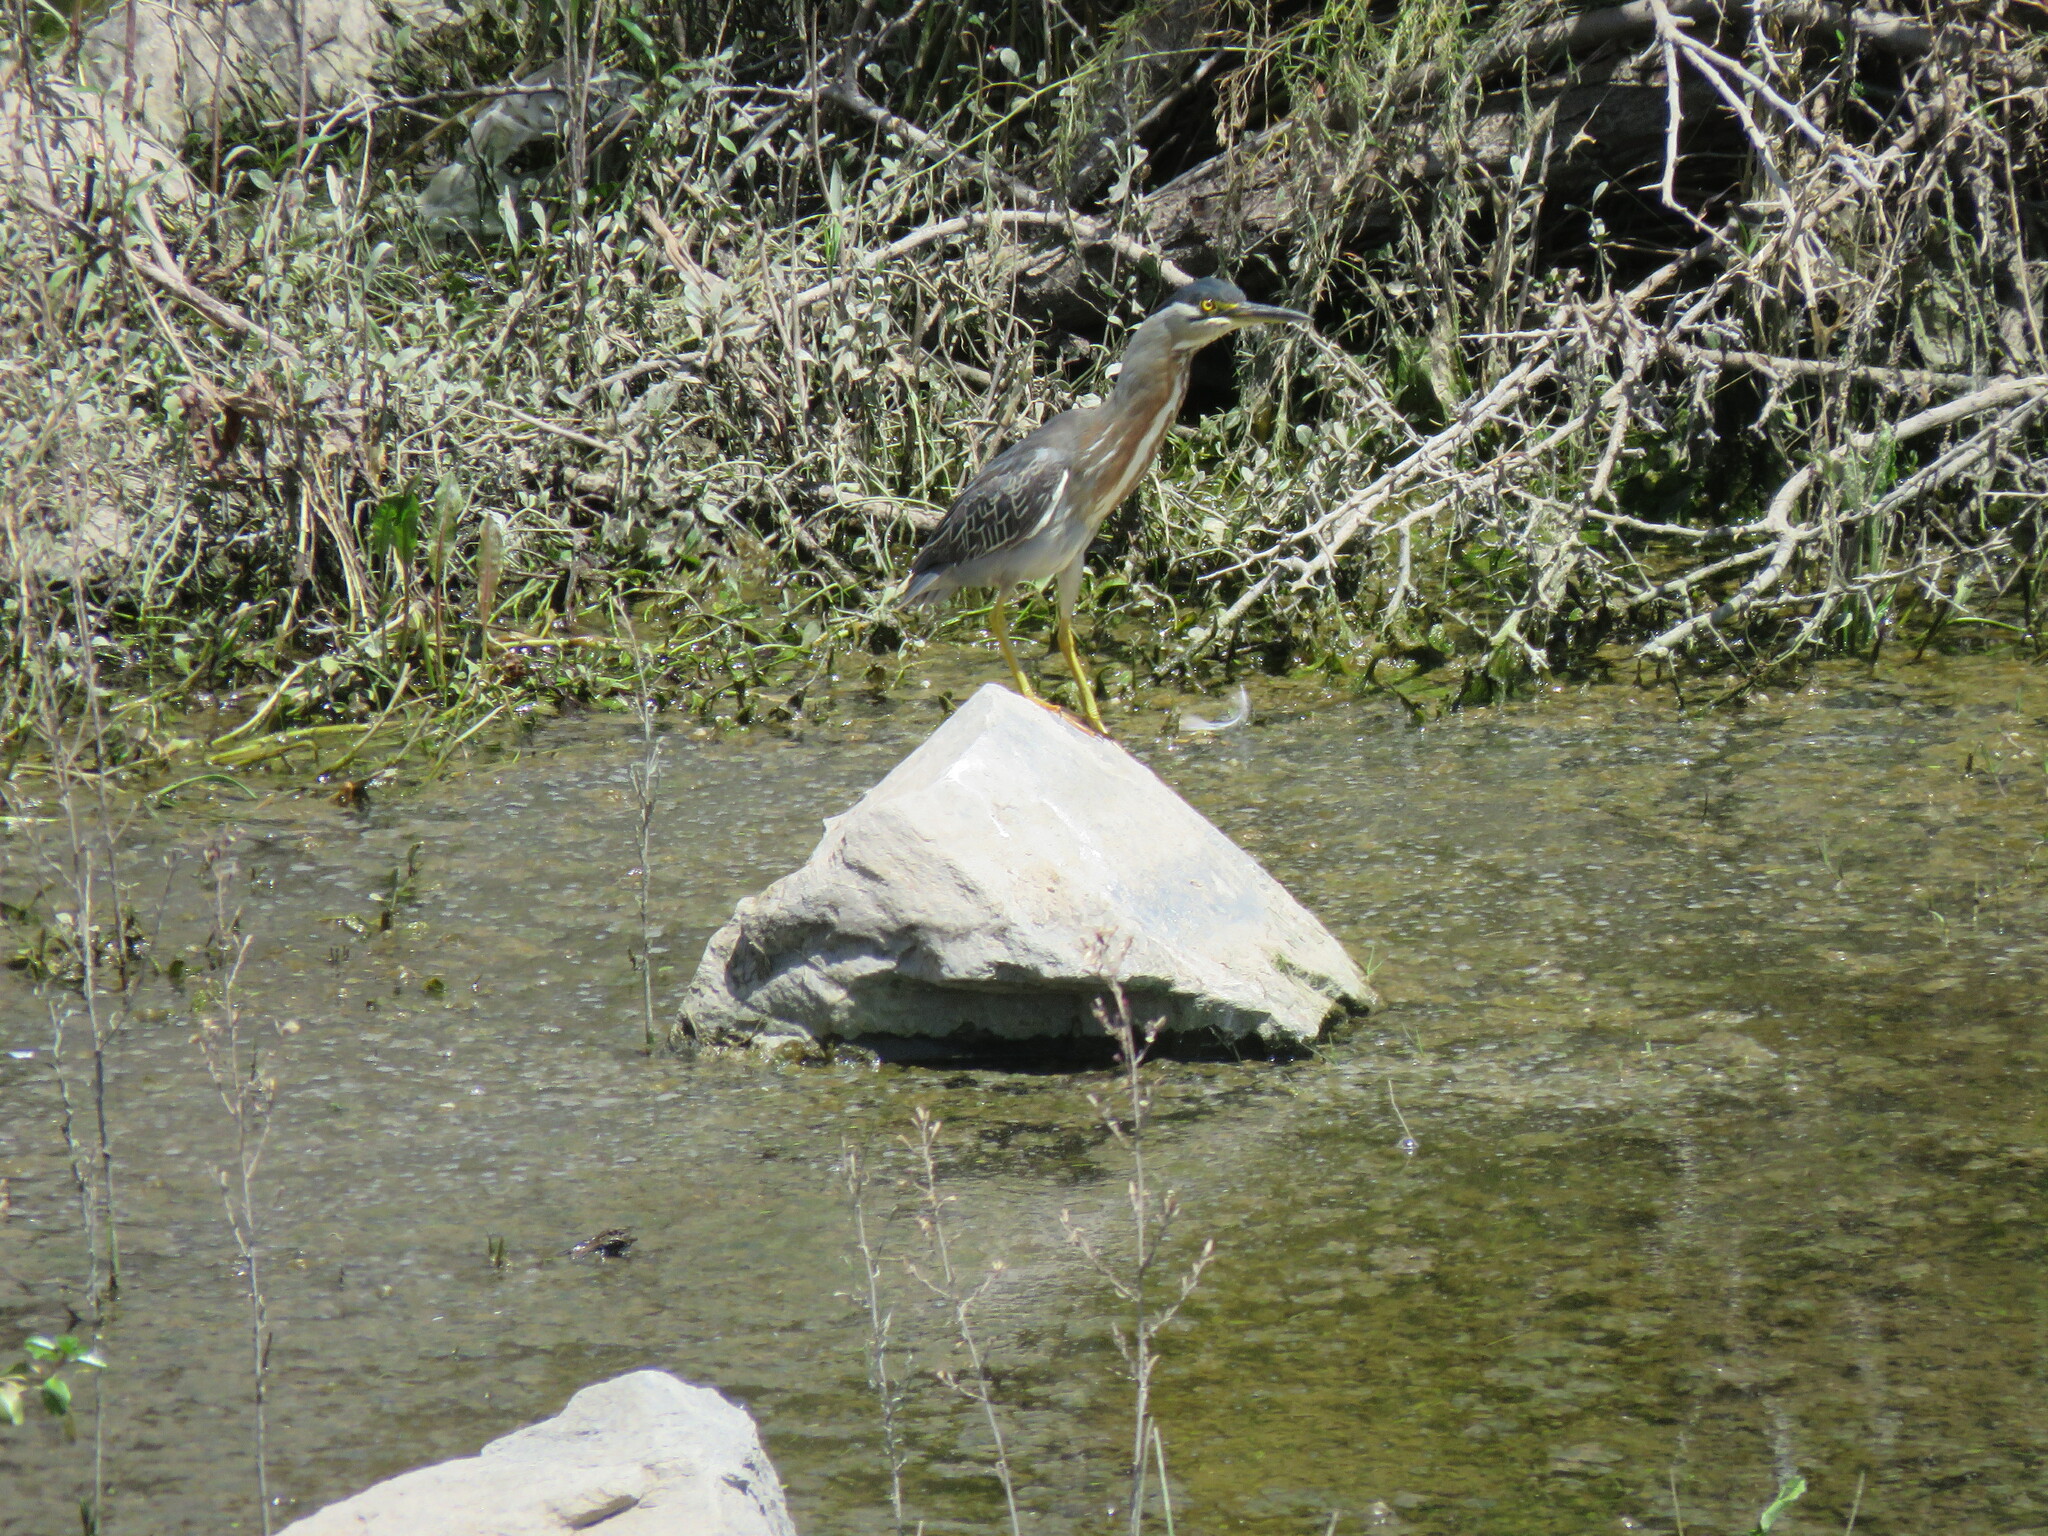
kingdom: Animalia
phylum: Chordata
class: Aves
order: Pelecaniformes
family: Ardeidae
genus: Butorides
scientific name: Butorides striata
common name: Striated heron
